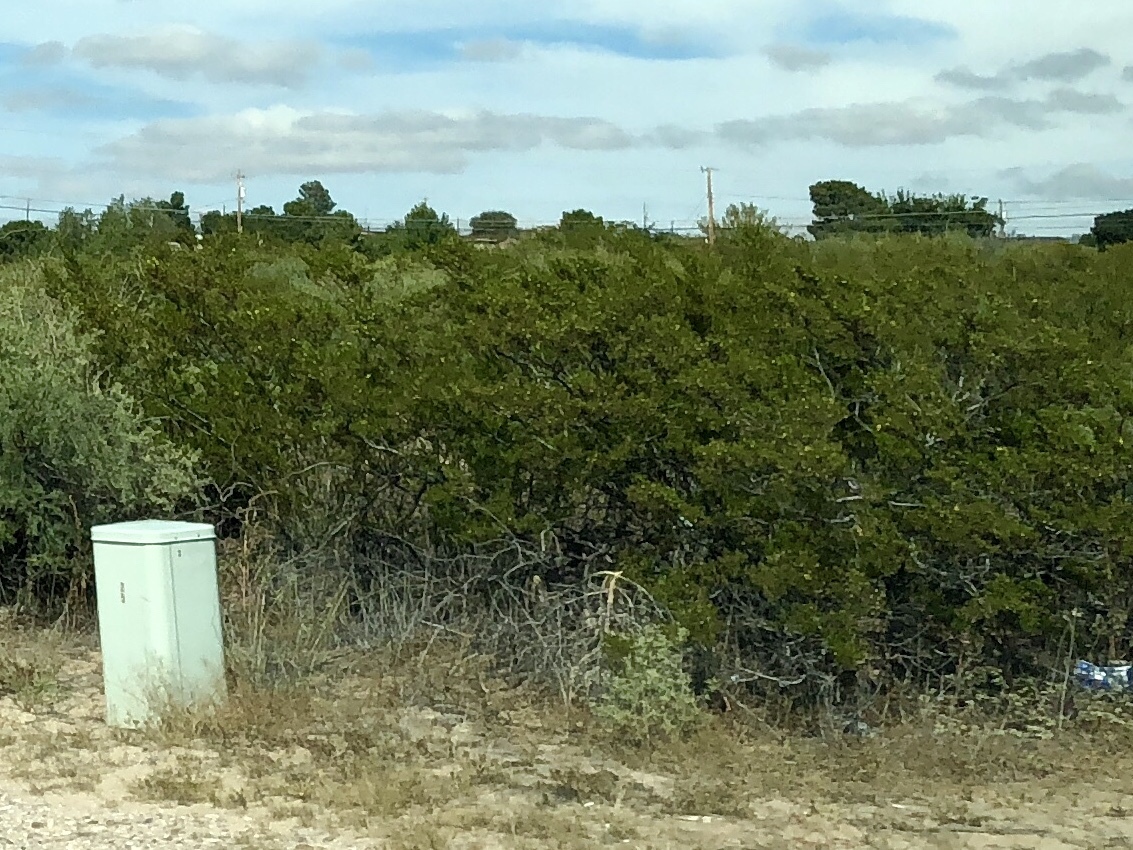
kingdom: Plantae
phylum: Tracheophyta
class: Magnoliopsida
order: Zygophyllales
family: Zygophyllaceae
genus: Larrea
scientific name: Larrea tridentata
